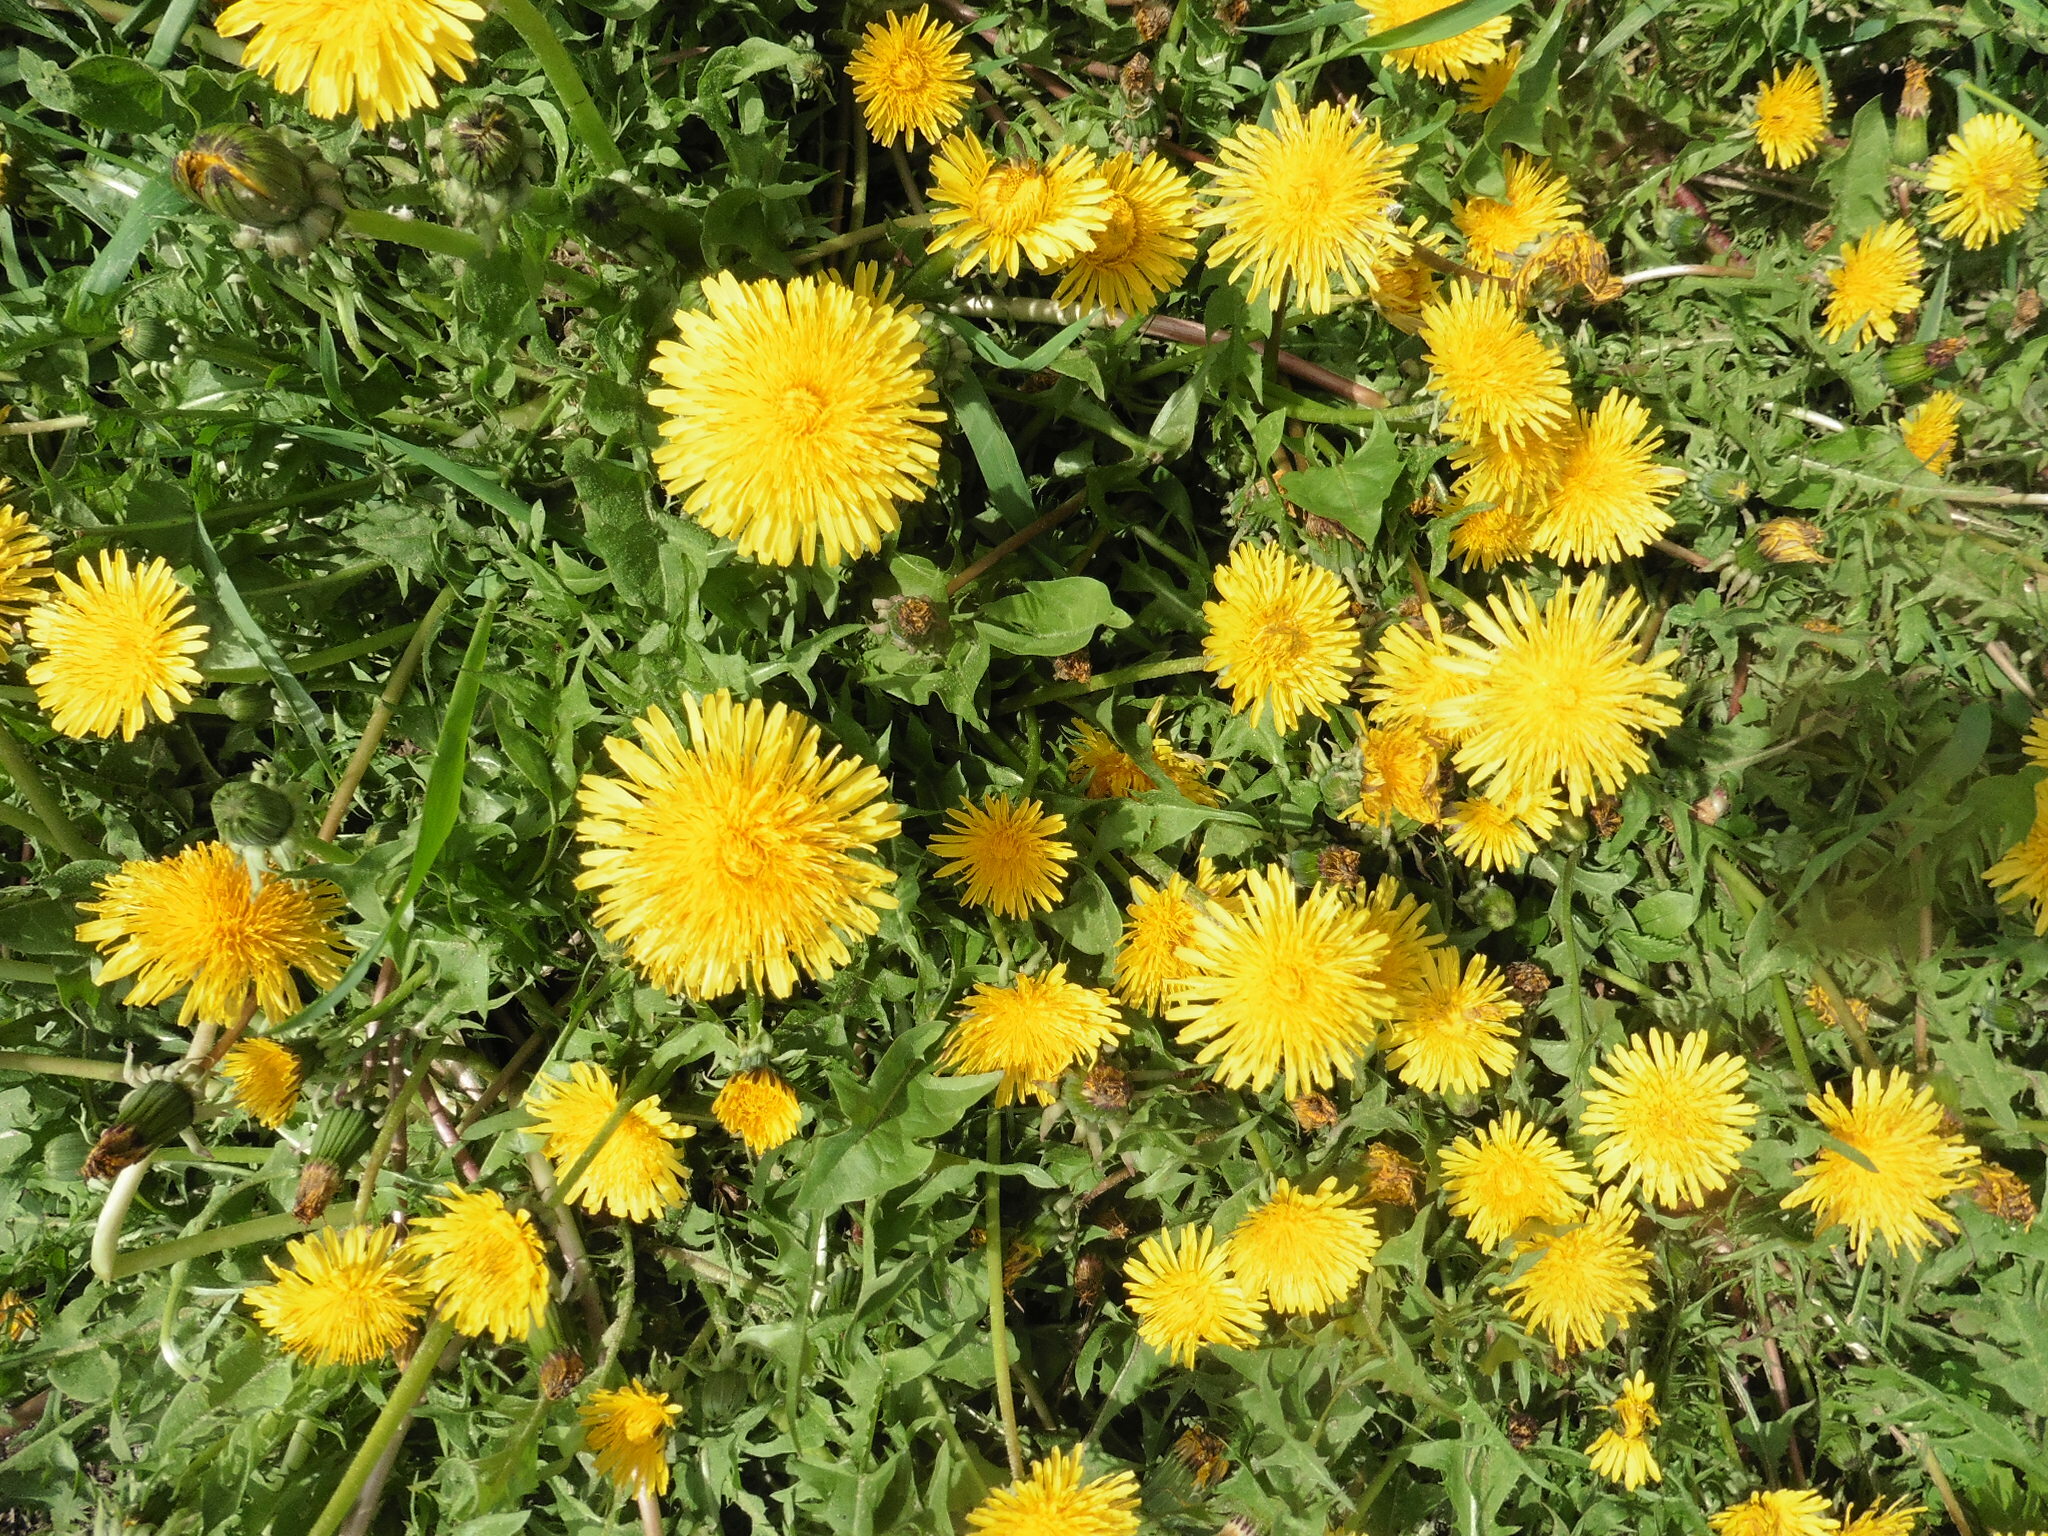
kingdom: Plantae
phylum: Tracheophyta
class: Magnoliopsida
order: Asterales
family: Asteraceae
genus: Taraxacum
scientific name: Taraxacum officinale
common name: Common dandelion
